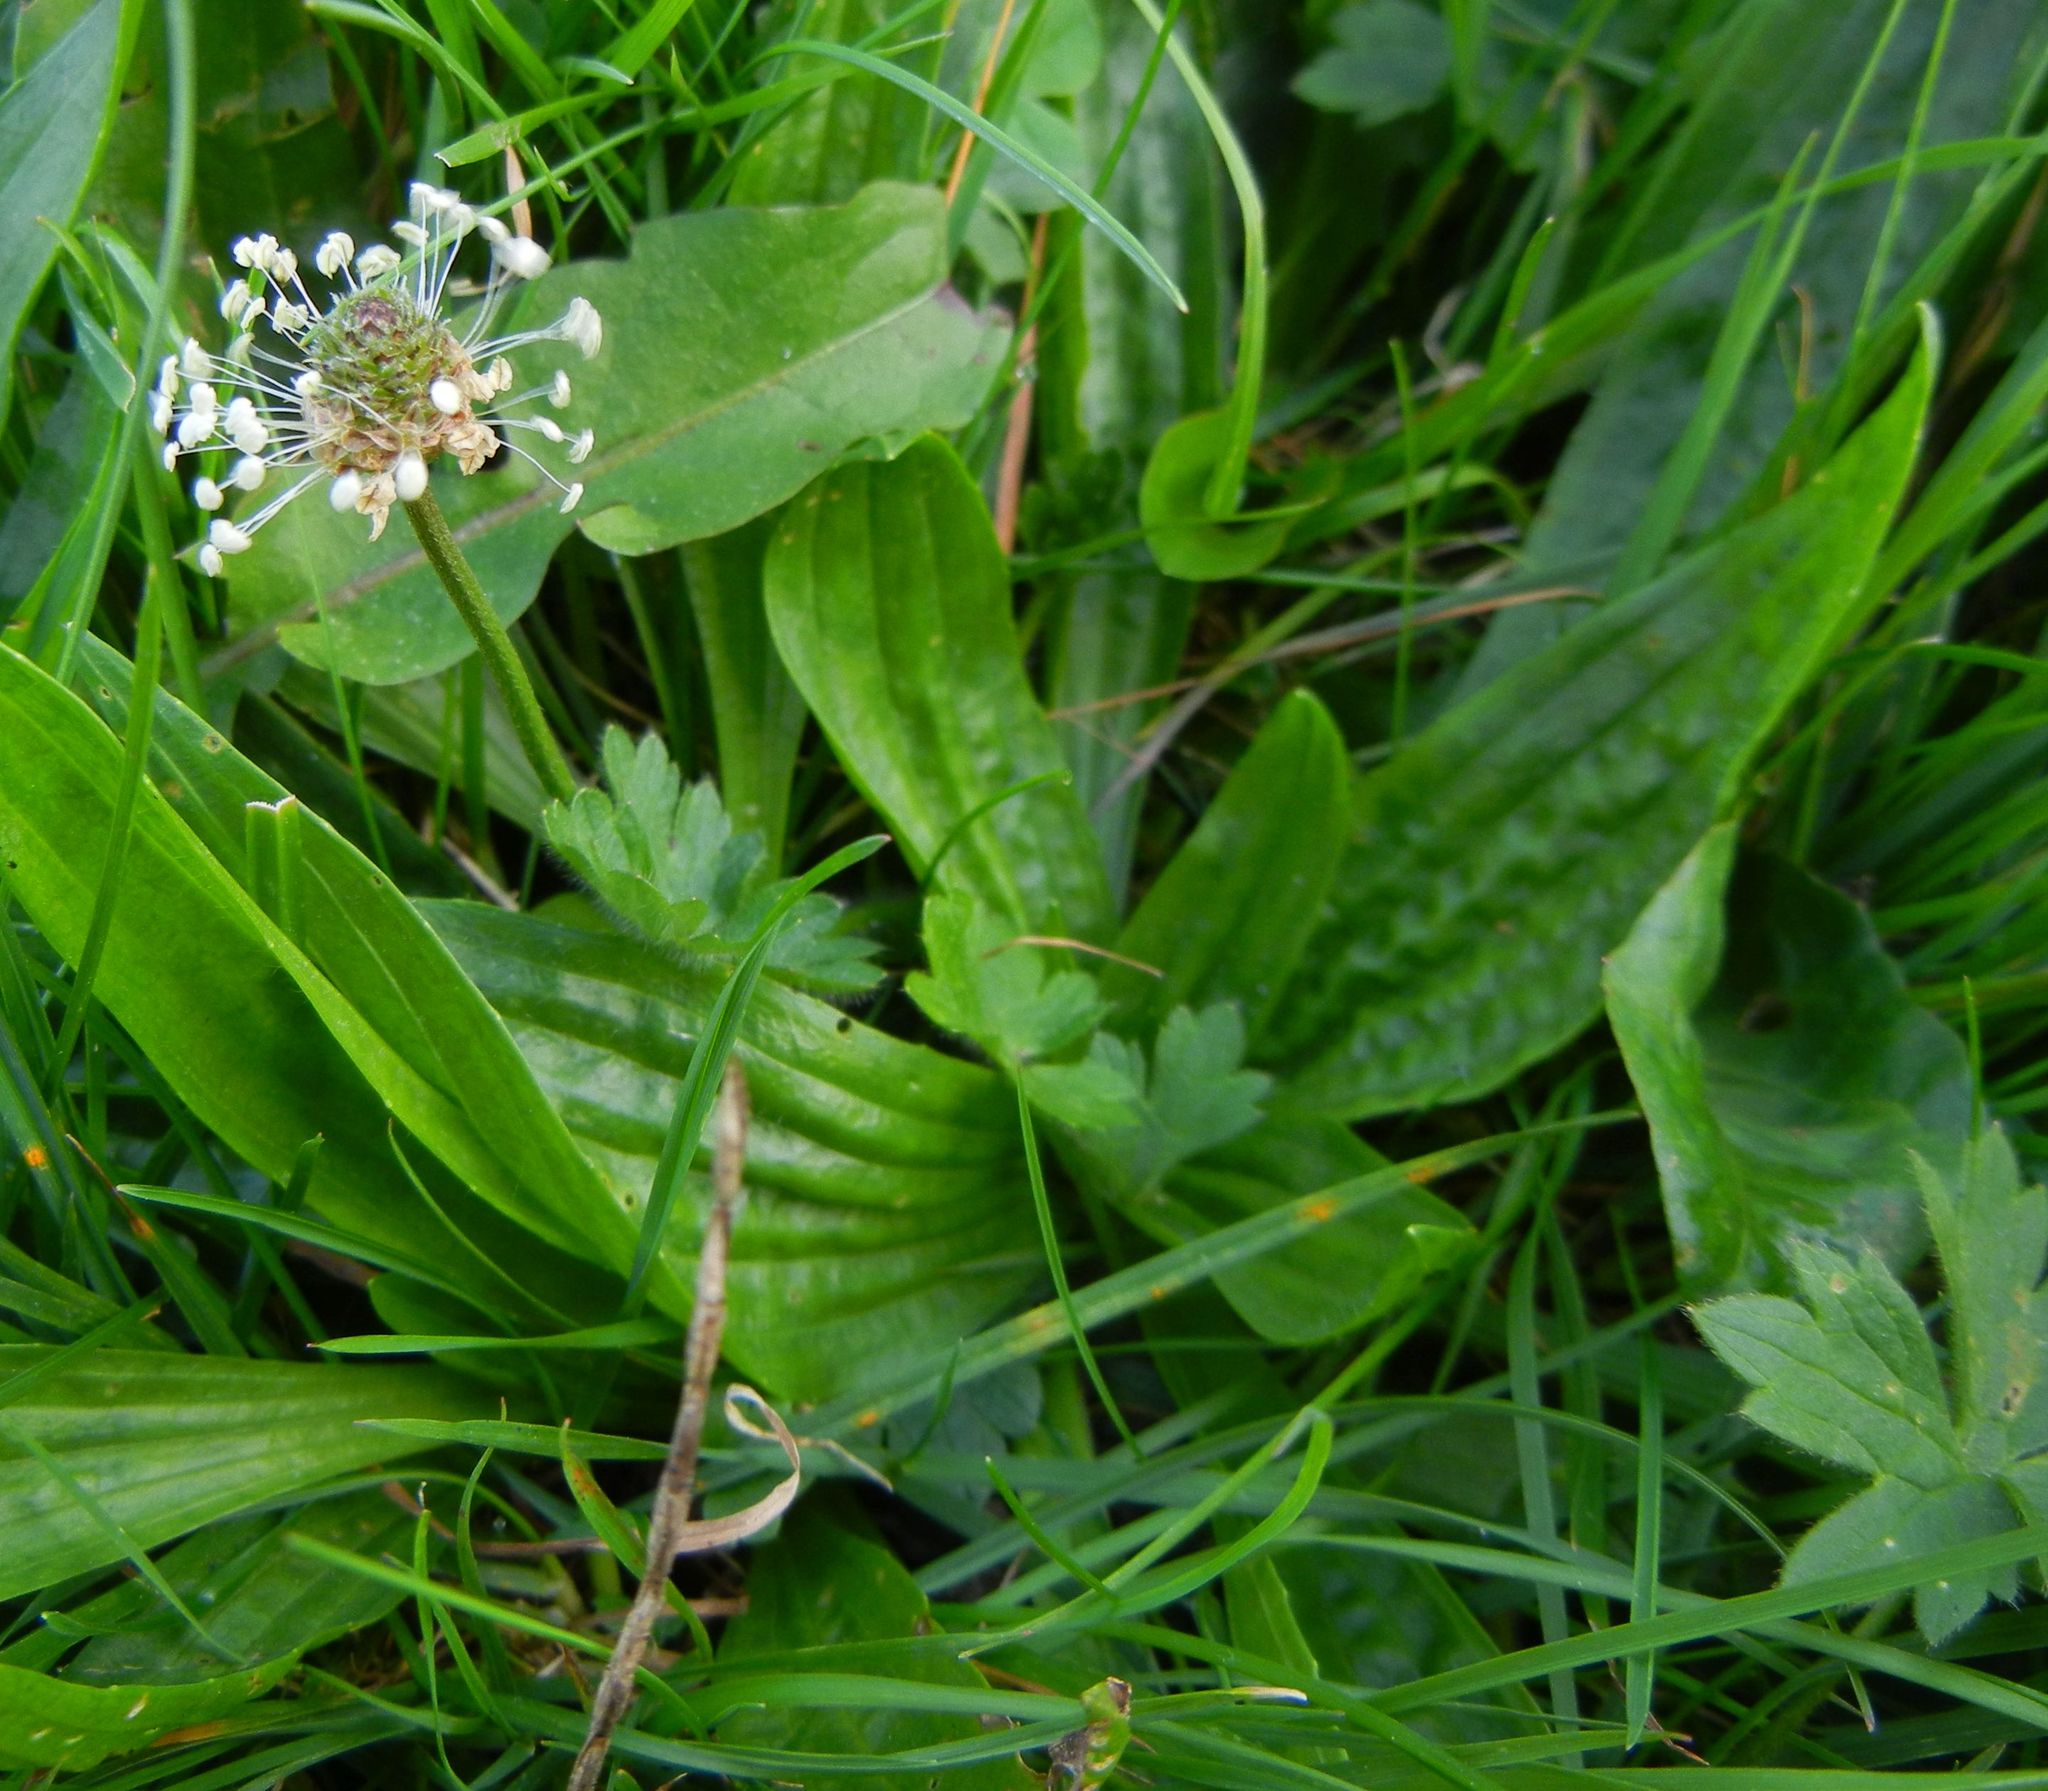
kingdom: Plantae
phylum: Tracheophyta
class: Magnoliopsida
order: Lamiales
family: Plantaginaceae
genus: Plantago
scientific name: Plantago lanceolata
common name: Ribwort plantain
